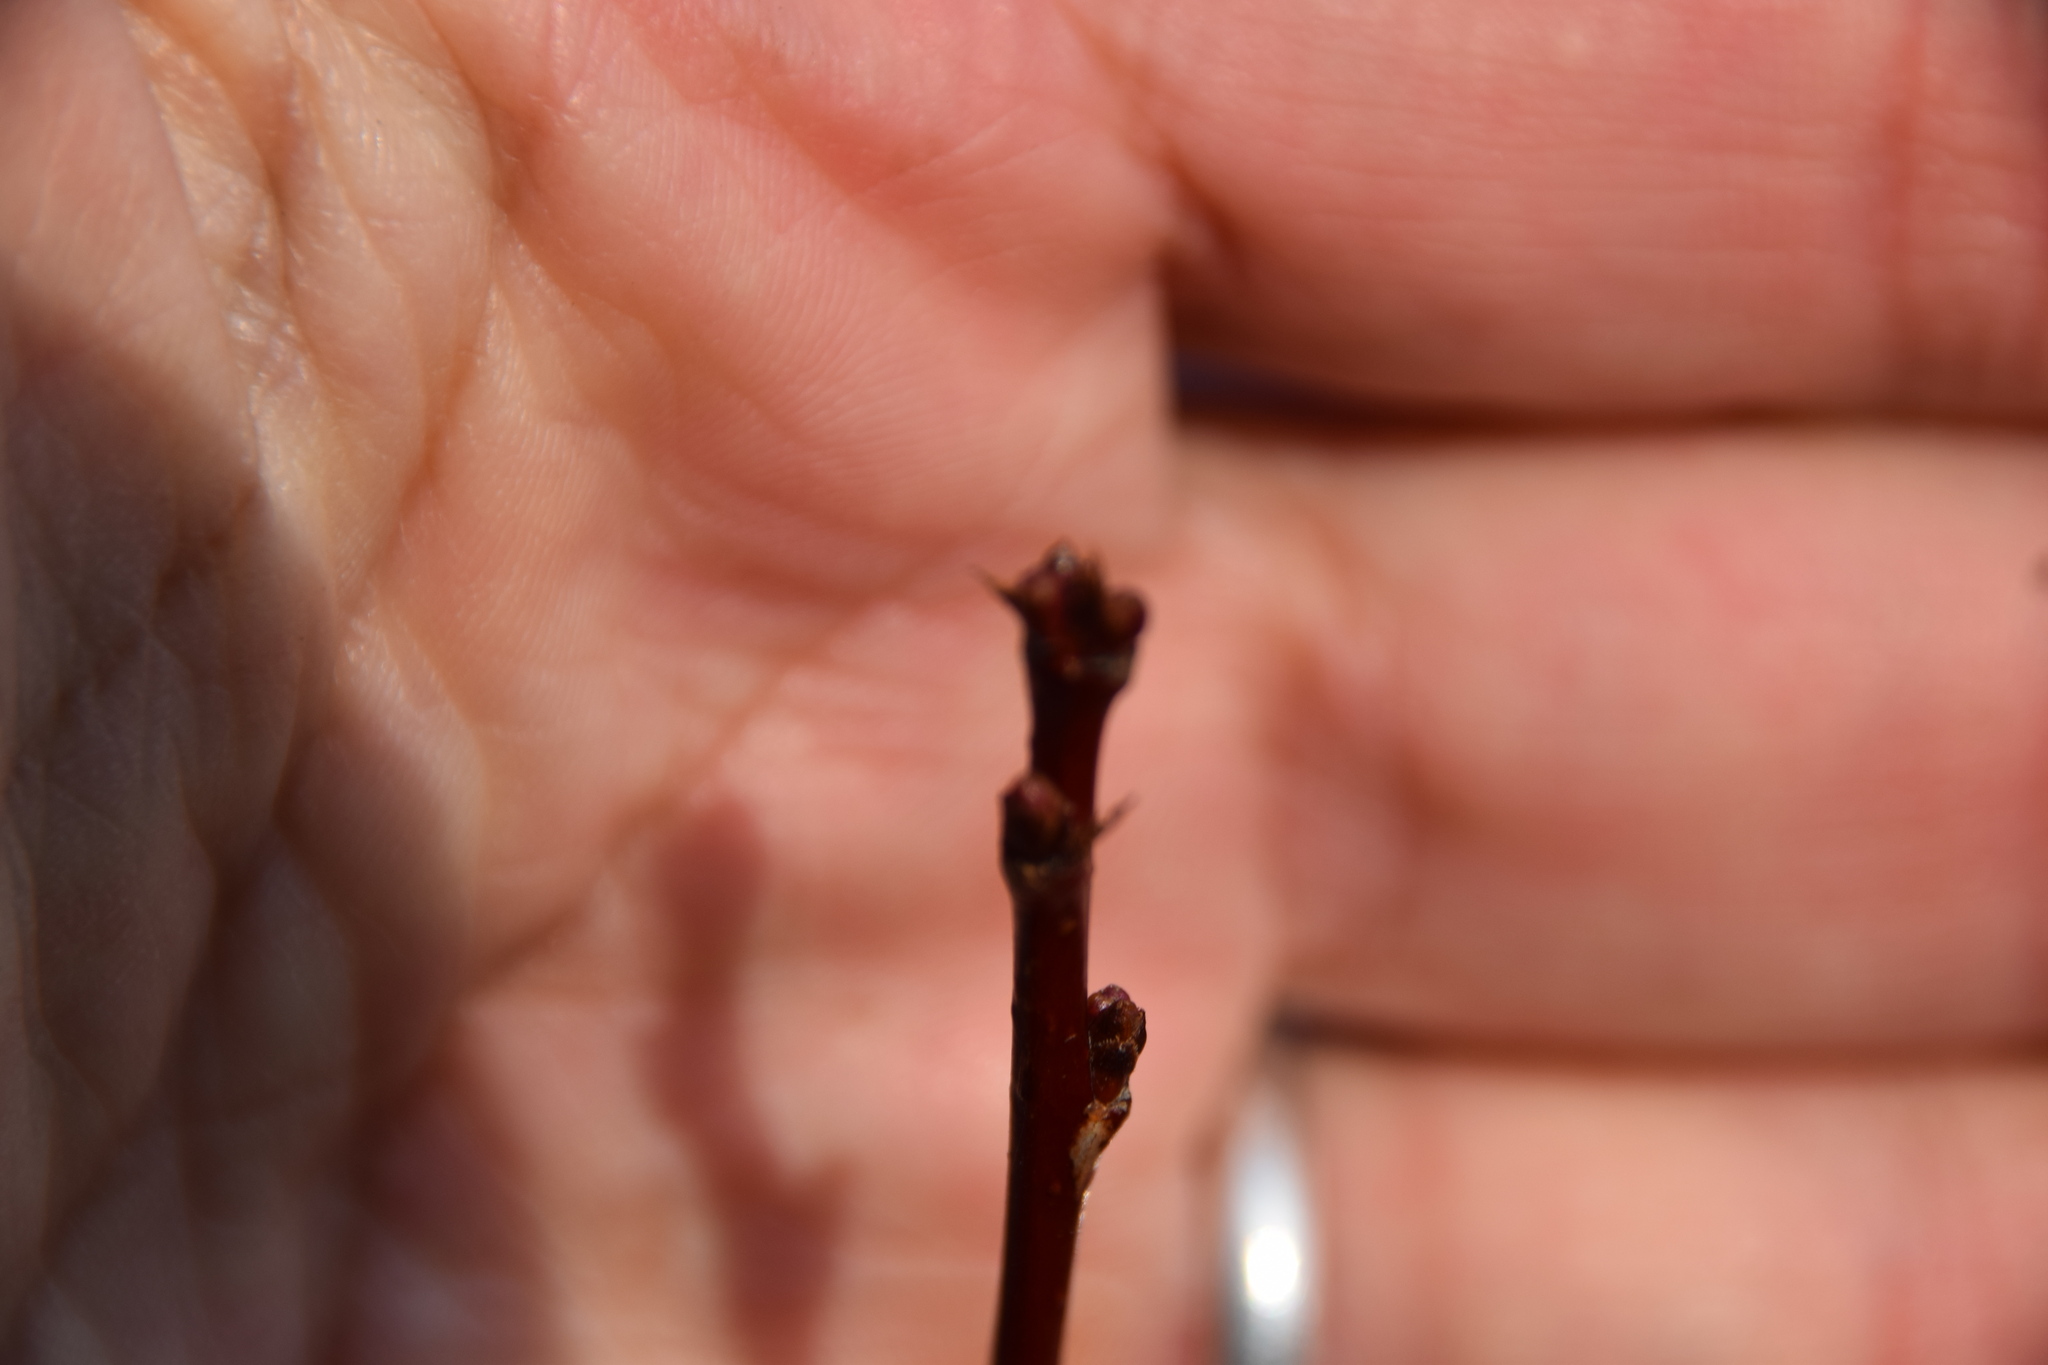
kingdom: Plantae
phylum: Tracheophyta
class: Magnoliopsida
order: Rosales
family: Rosaceae
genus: Prunus
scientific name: Prunus pensylvanica
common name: Pin cherry
